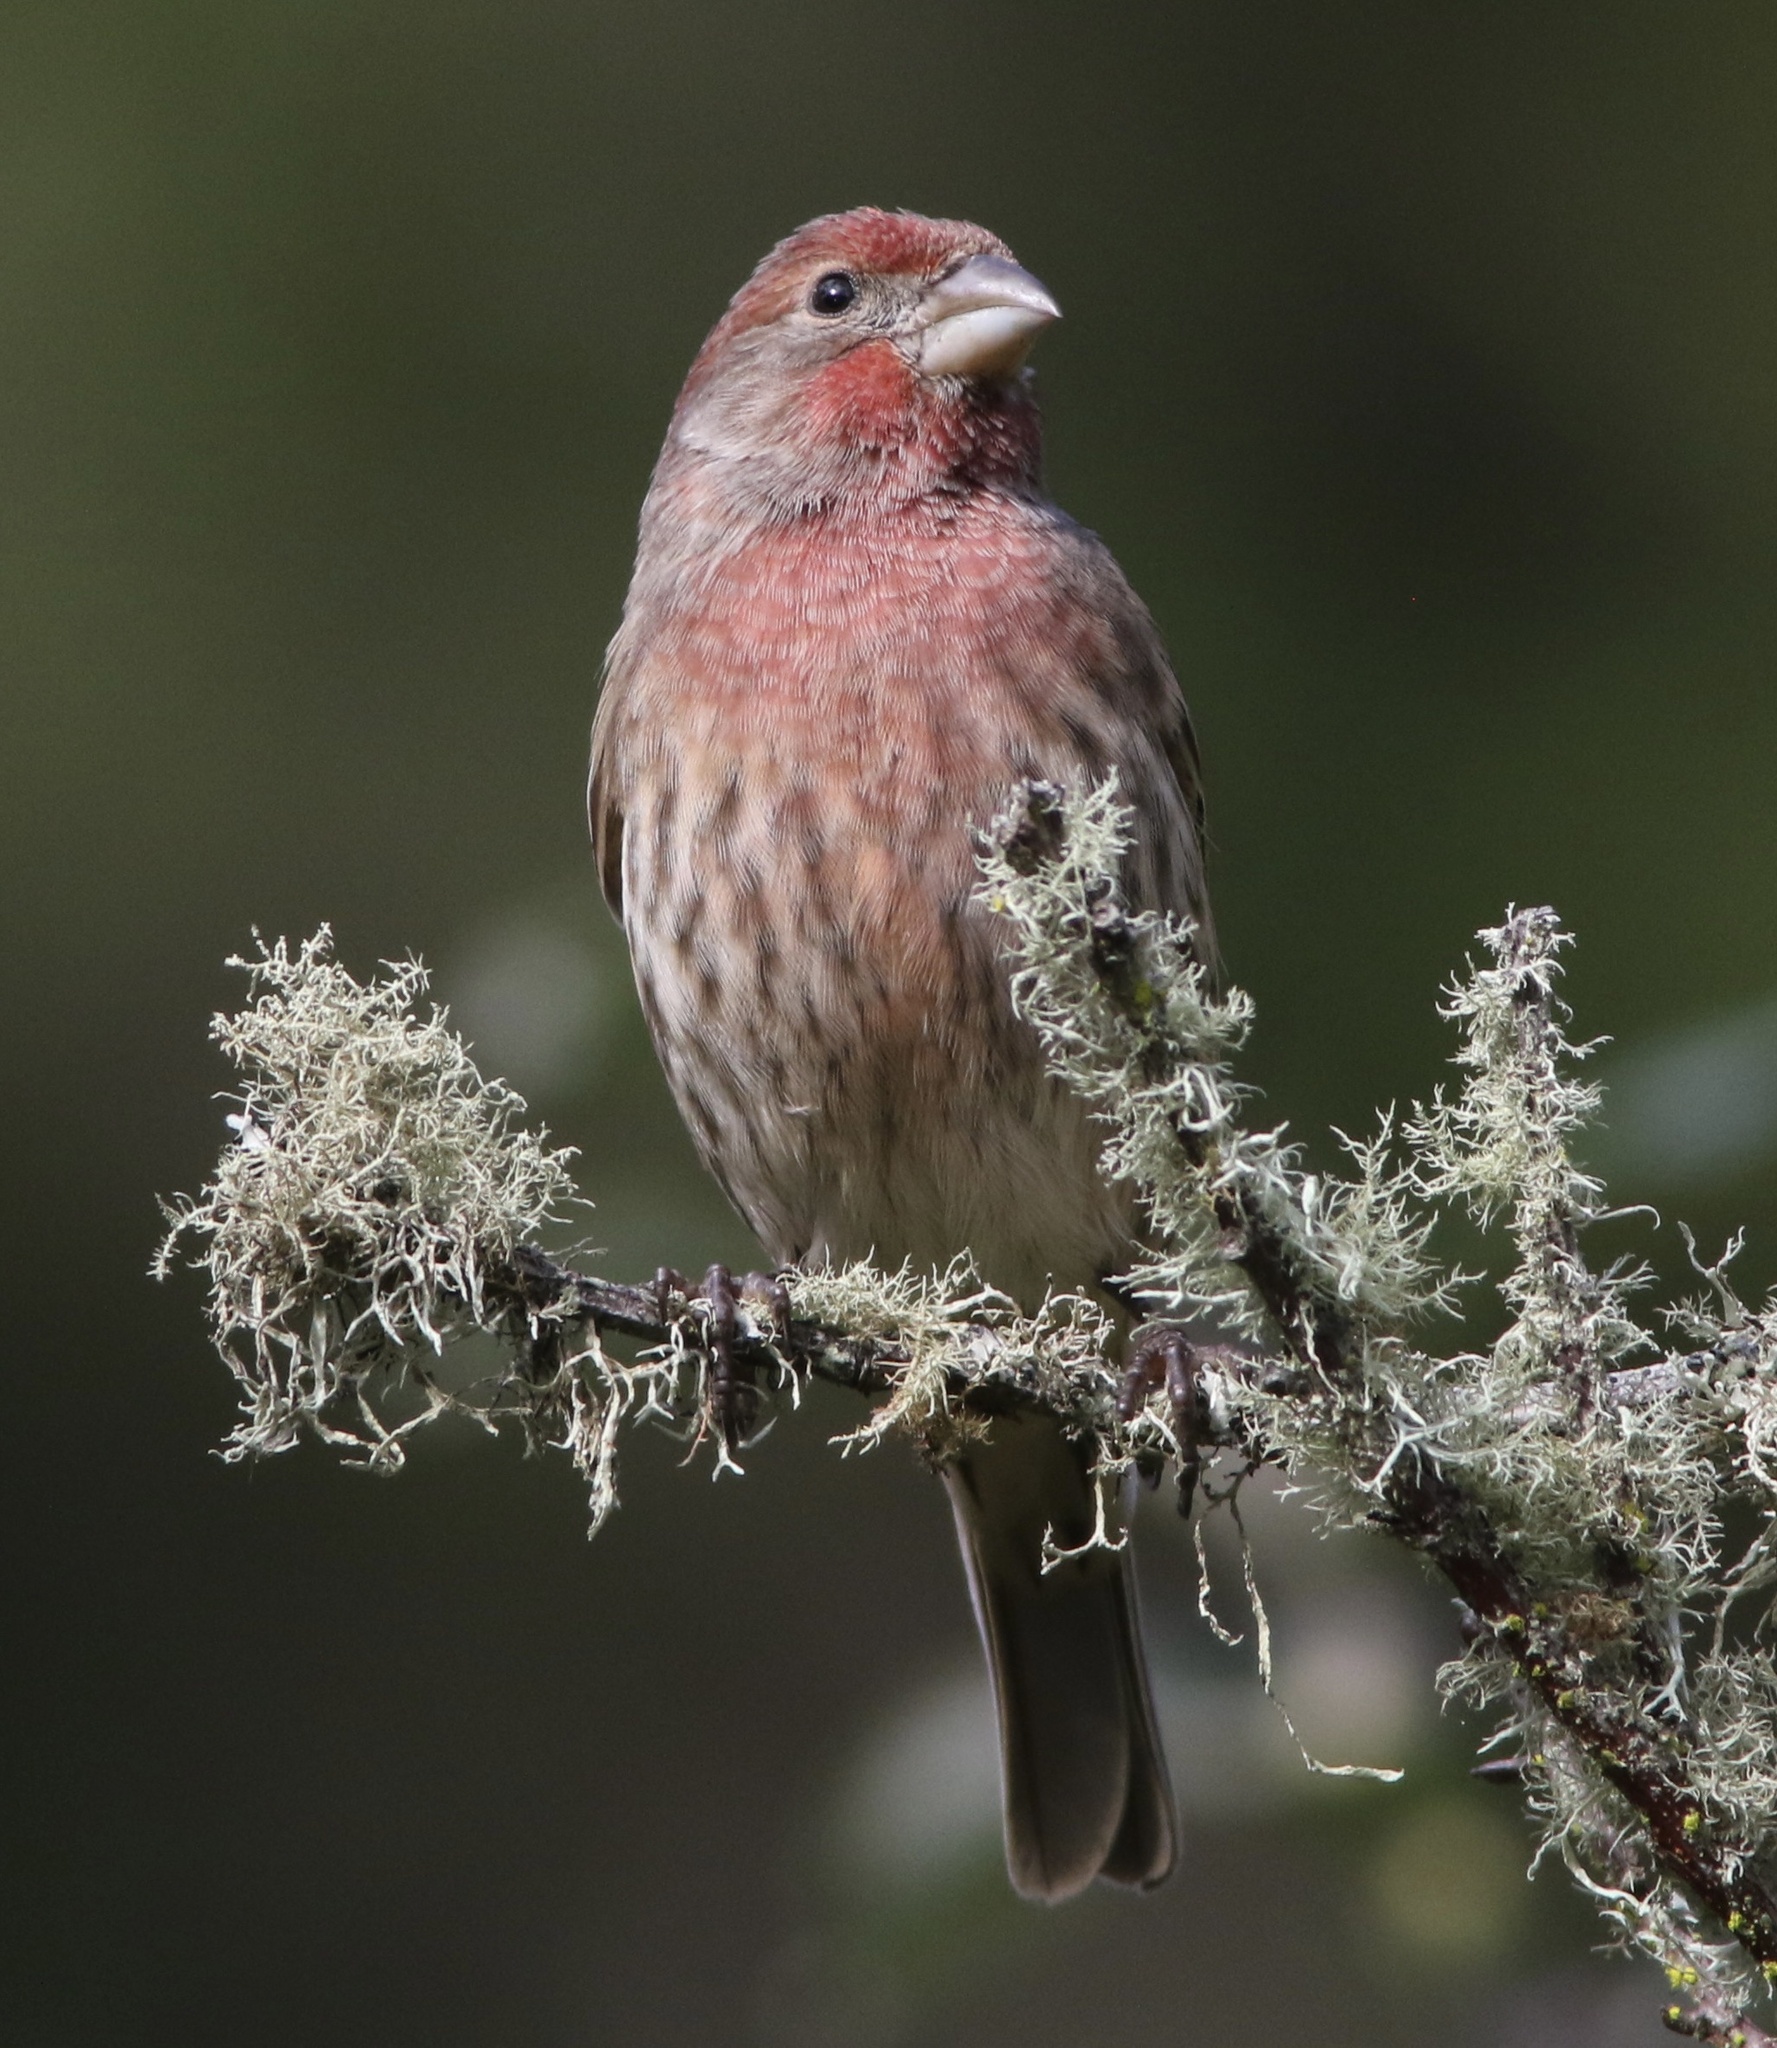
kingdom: Animalia
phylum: Chordata
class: Aves
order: Passeriformes
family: Fringillidae
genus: Haemorhous
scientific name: Haemorhous mexicanus
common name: House finch
